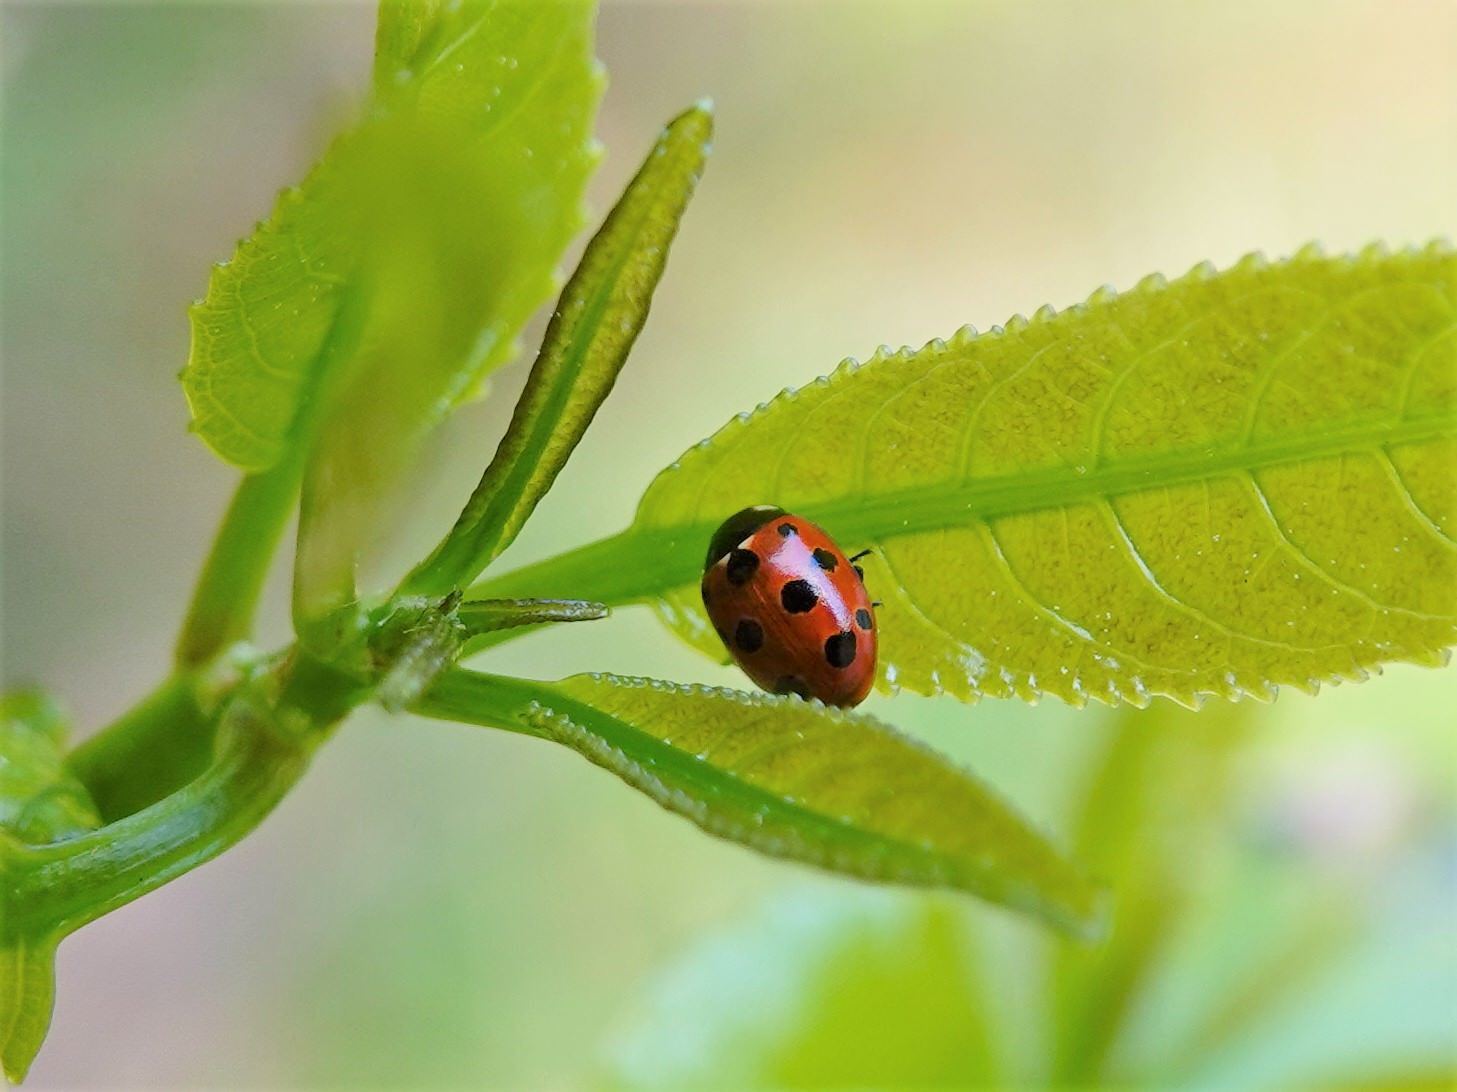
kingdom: Animalia
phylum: Arthropoda
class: Insecta
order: Coleoptera
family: Coccinellidae
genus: Coccinella
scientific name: Coccinella undecimpunctata
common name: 11-spot ladybird
